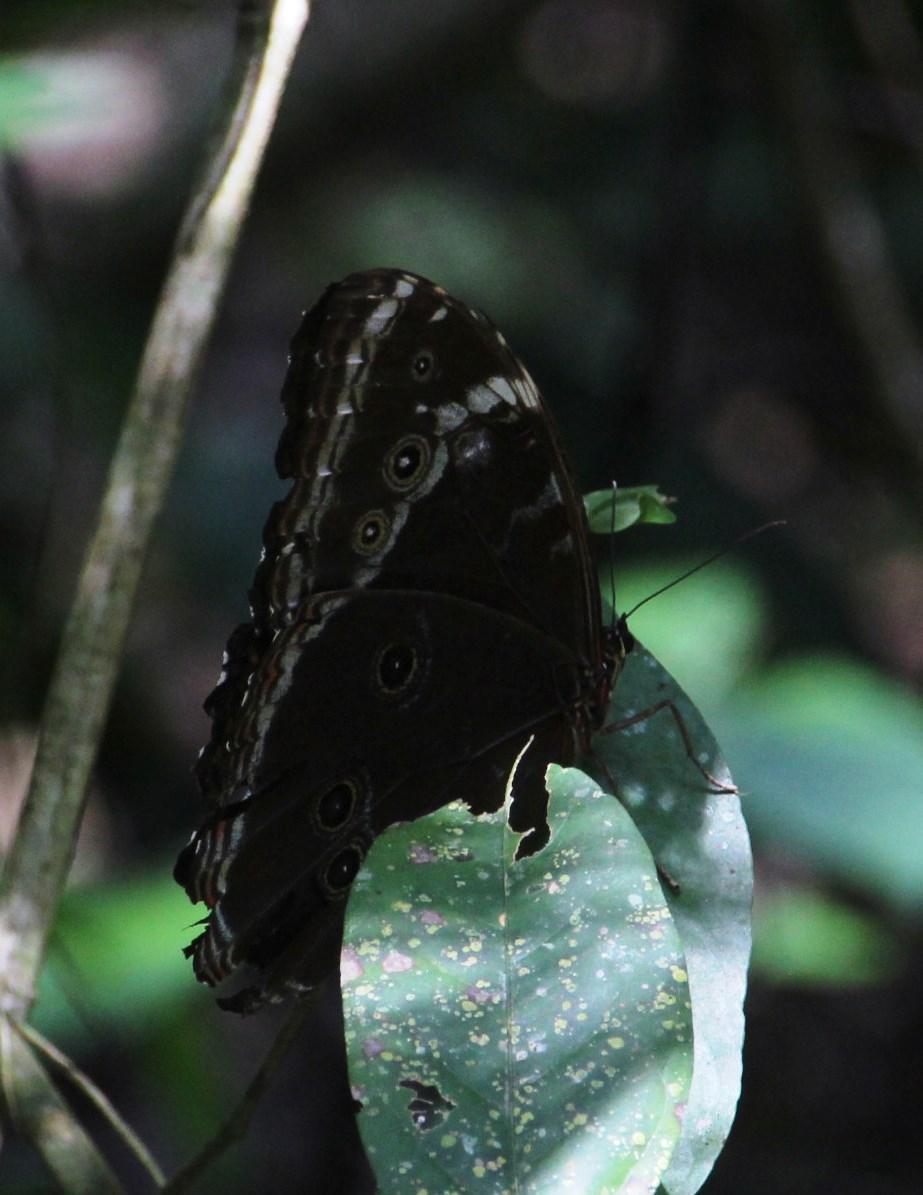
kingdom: Animalia
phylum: Arthropoda
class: Insecta
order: Lepidoptera
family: Nymphalidae
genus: Morpho
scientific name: Morpho helenor
